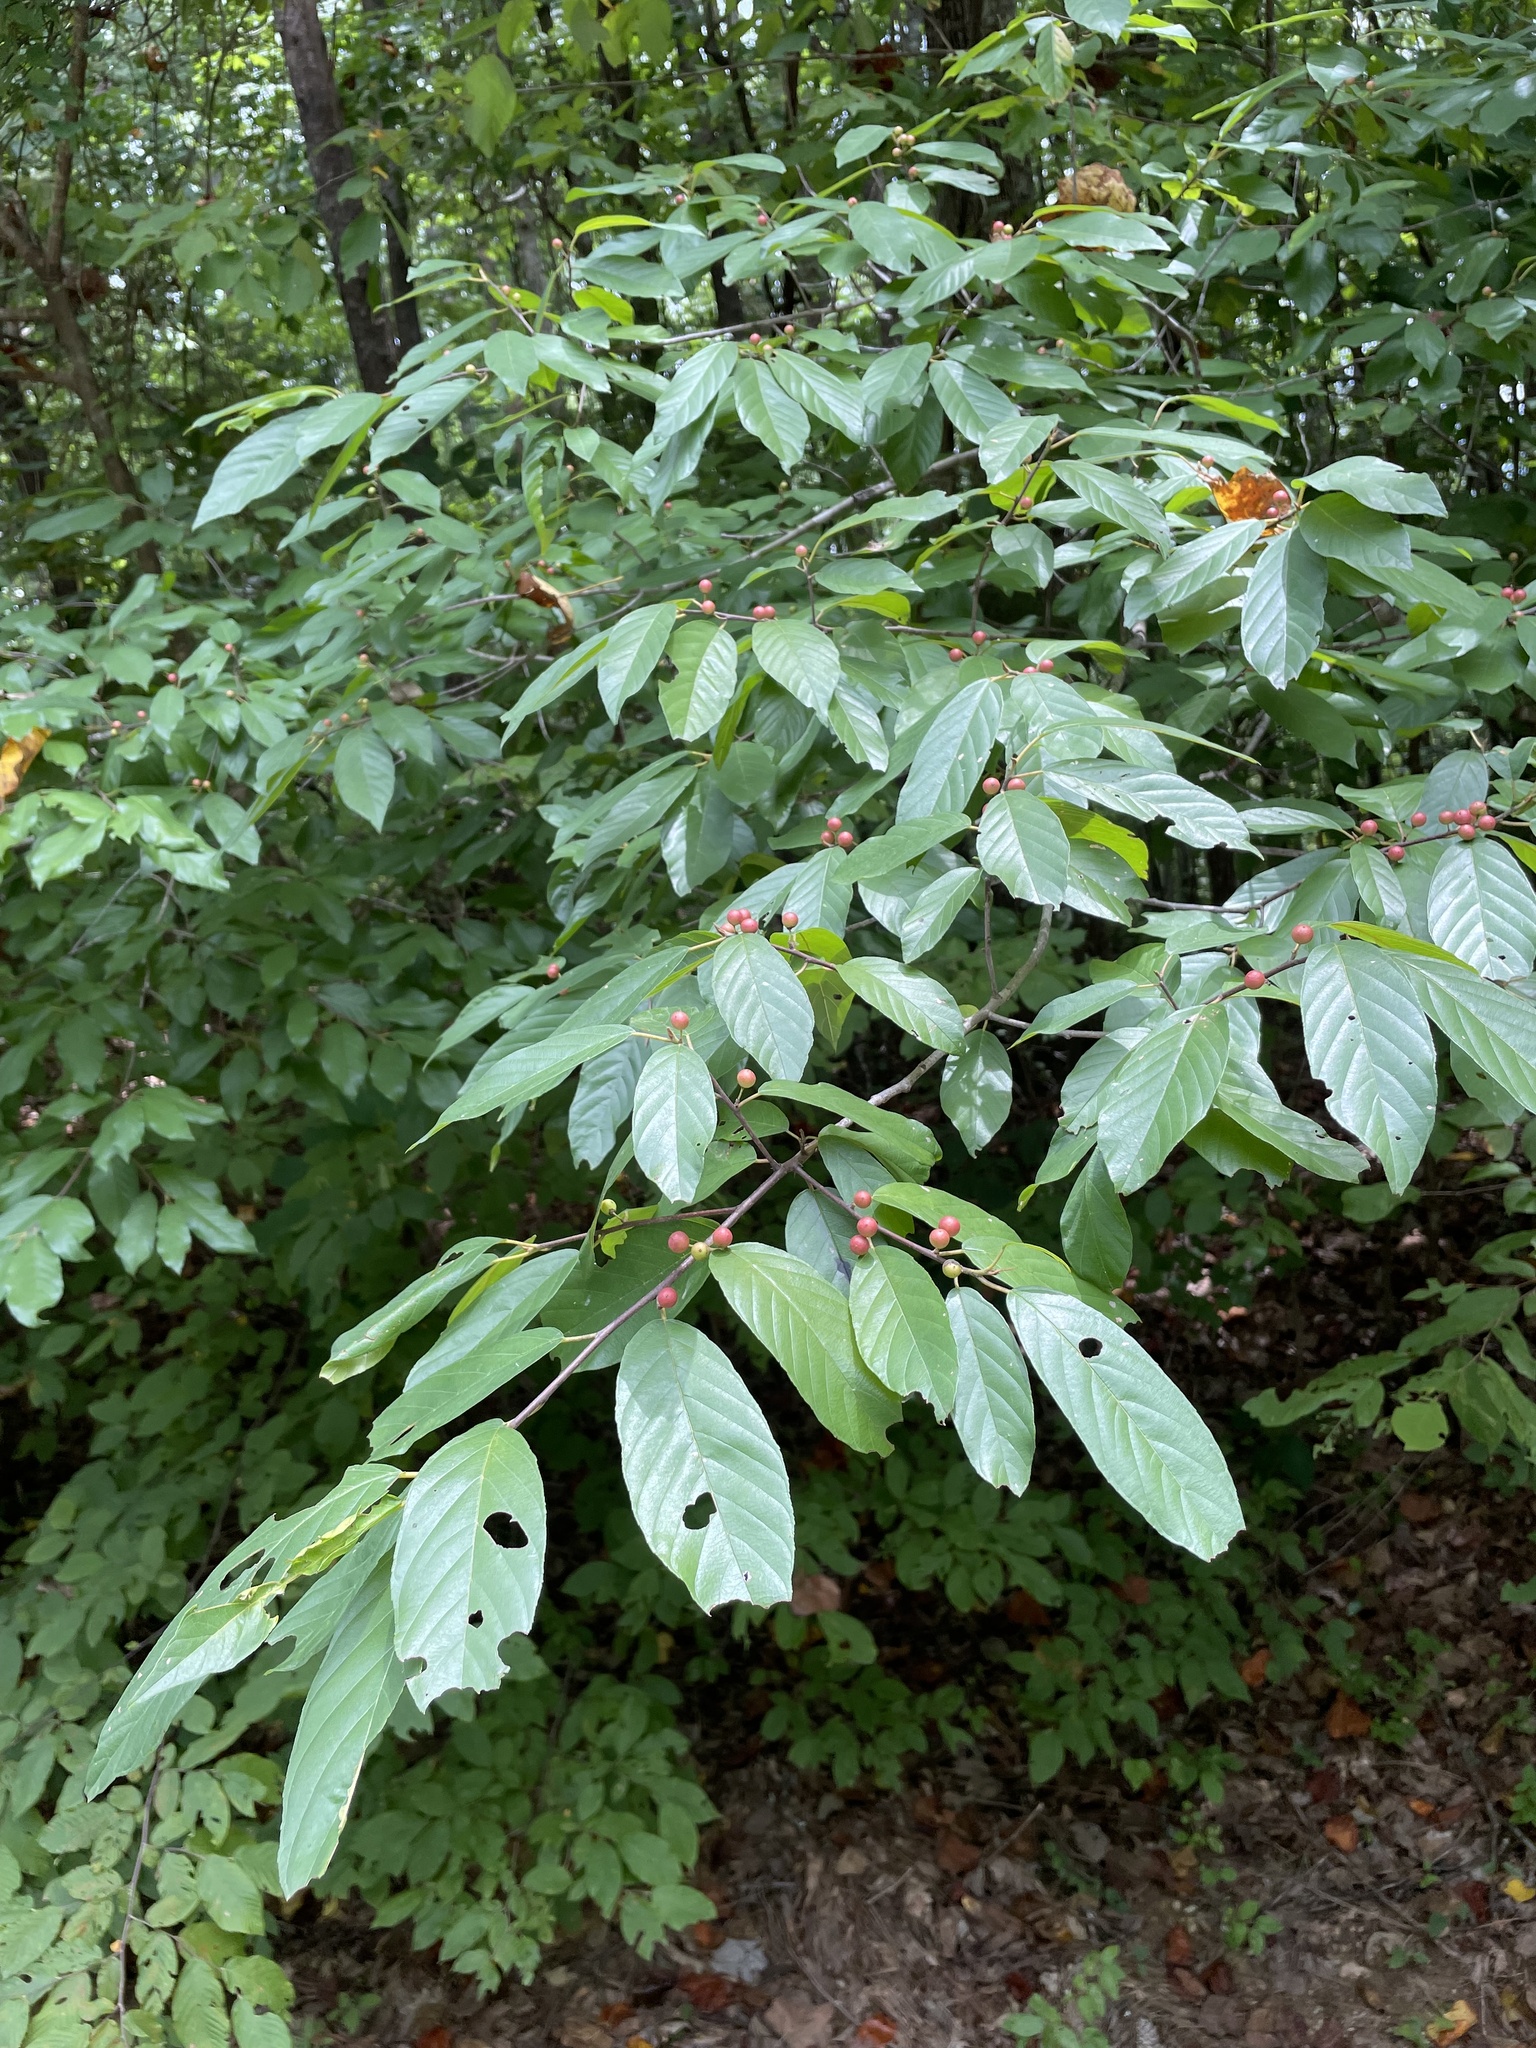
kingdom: Plantae
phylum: Tracheophyta
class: Magnoliopsida
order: Rosales
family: Rhamnaceae
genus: Frangula
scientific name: Frangula caroliniana
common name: Carolina buckthorn
